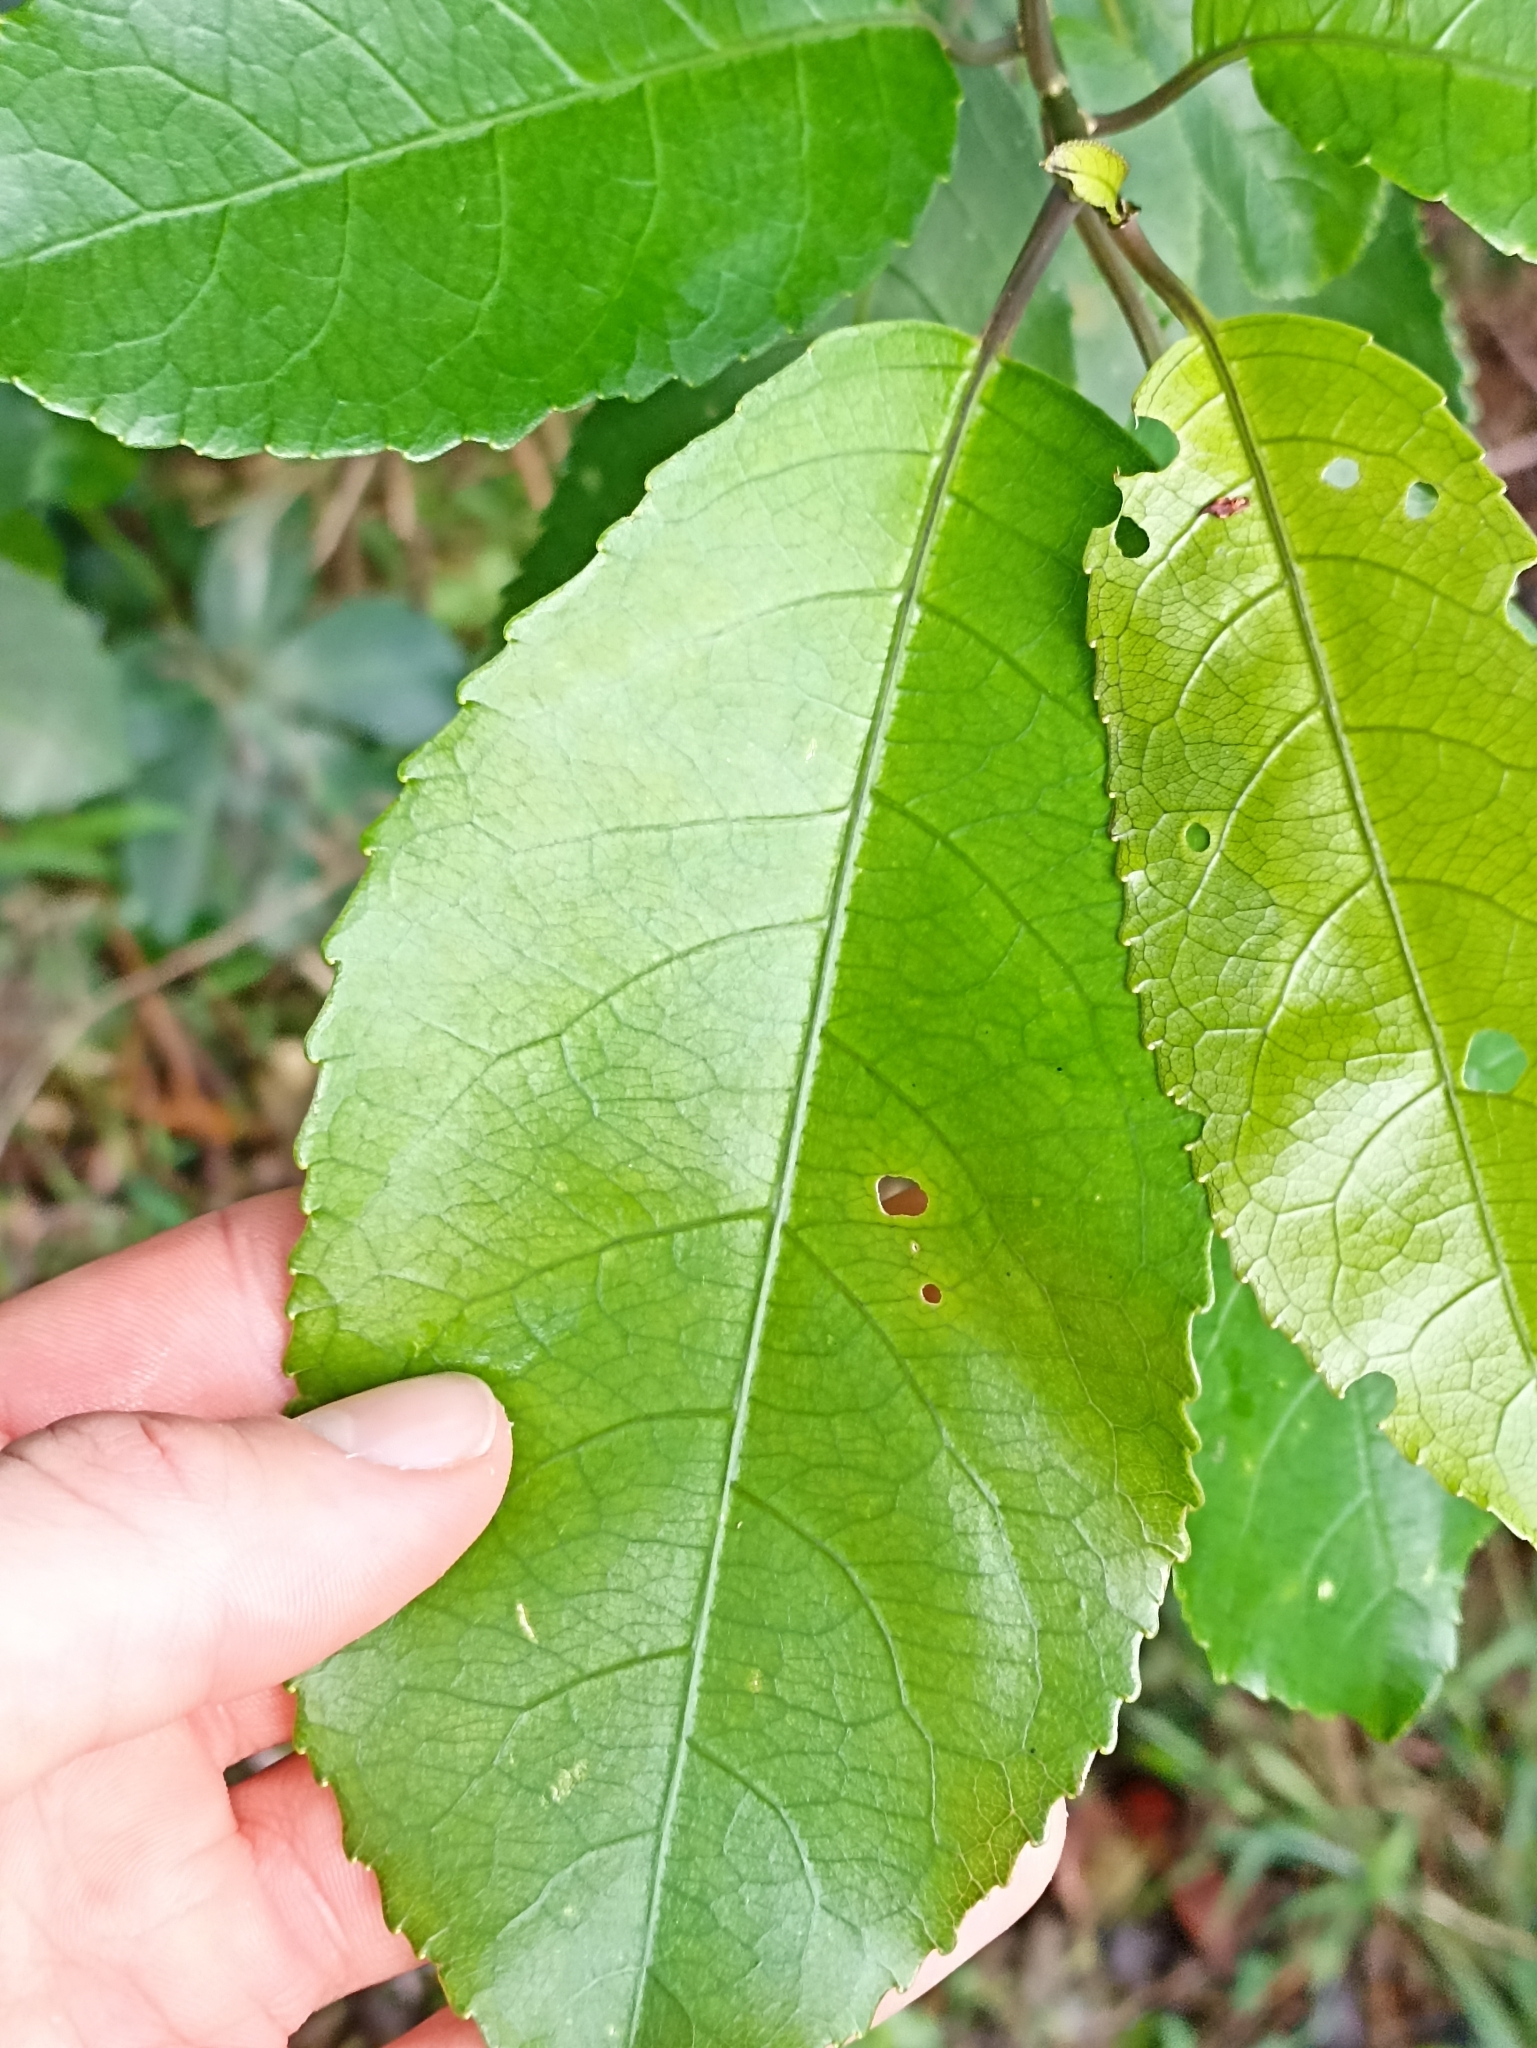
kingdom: Plantae
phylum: Tracheophyta
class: Magnoliopsida
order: Malpighiales
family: Violaceae
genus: Melicytus
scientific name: Melicytus ramiflorus
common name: Mahoe
